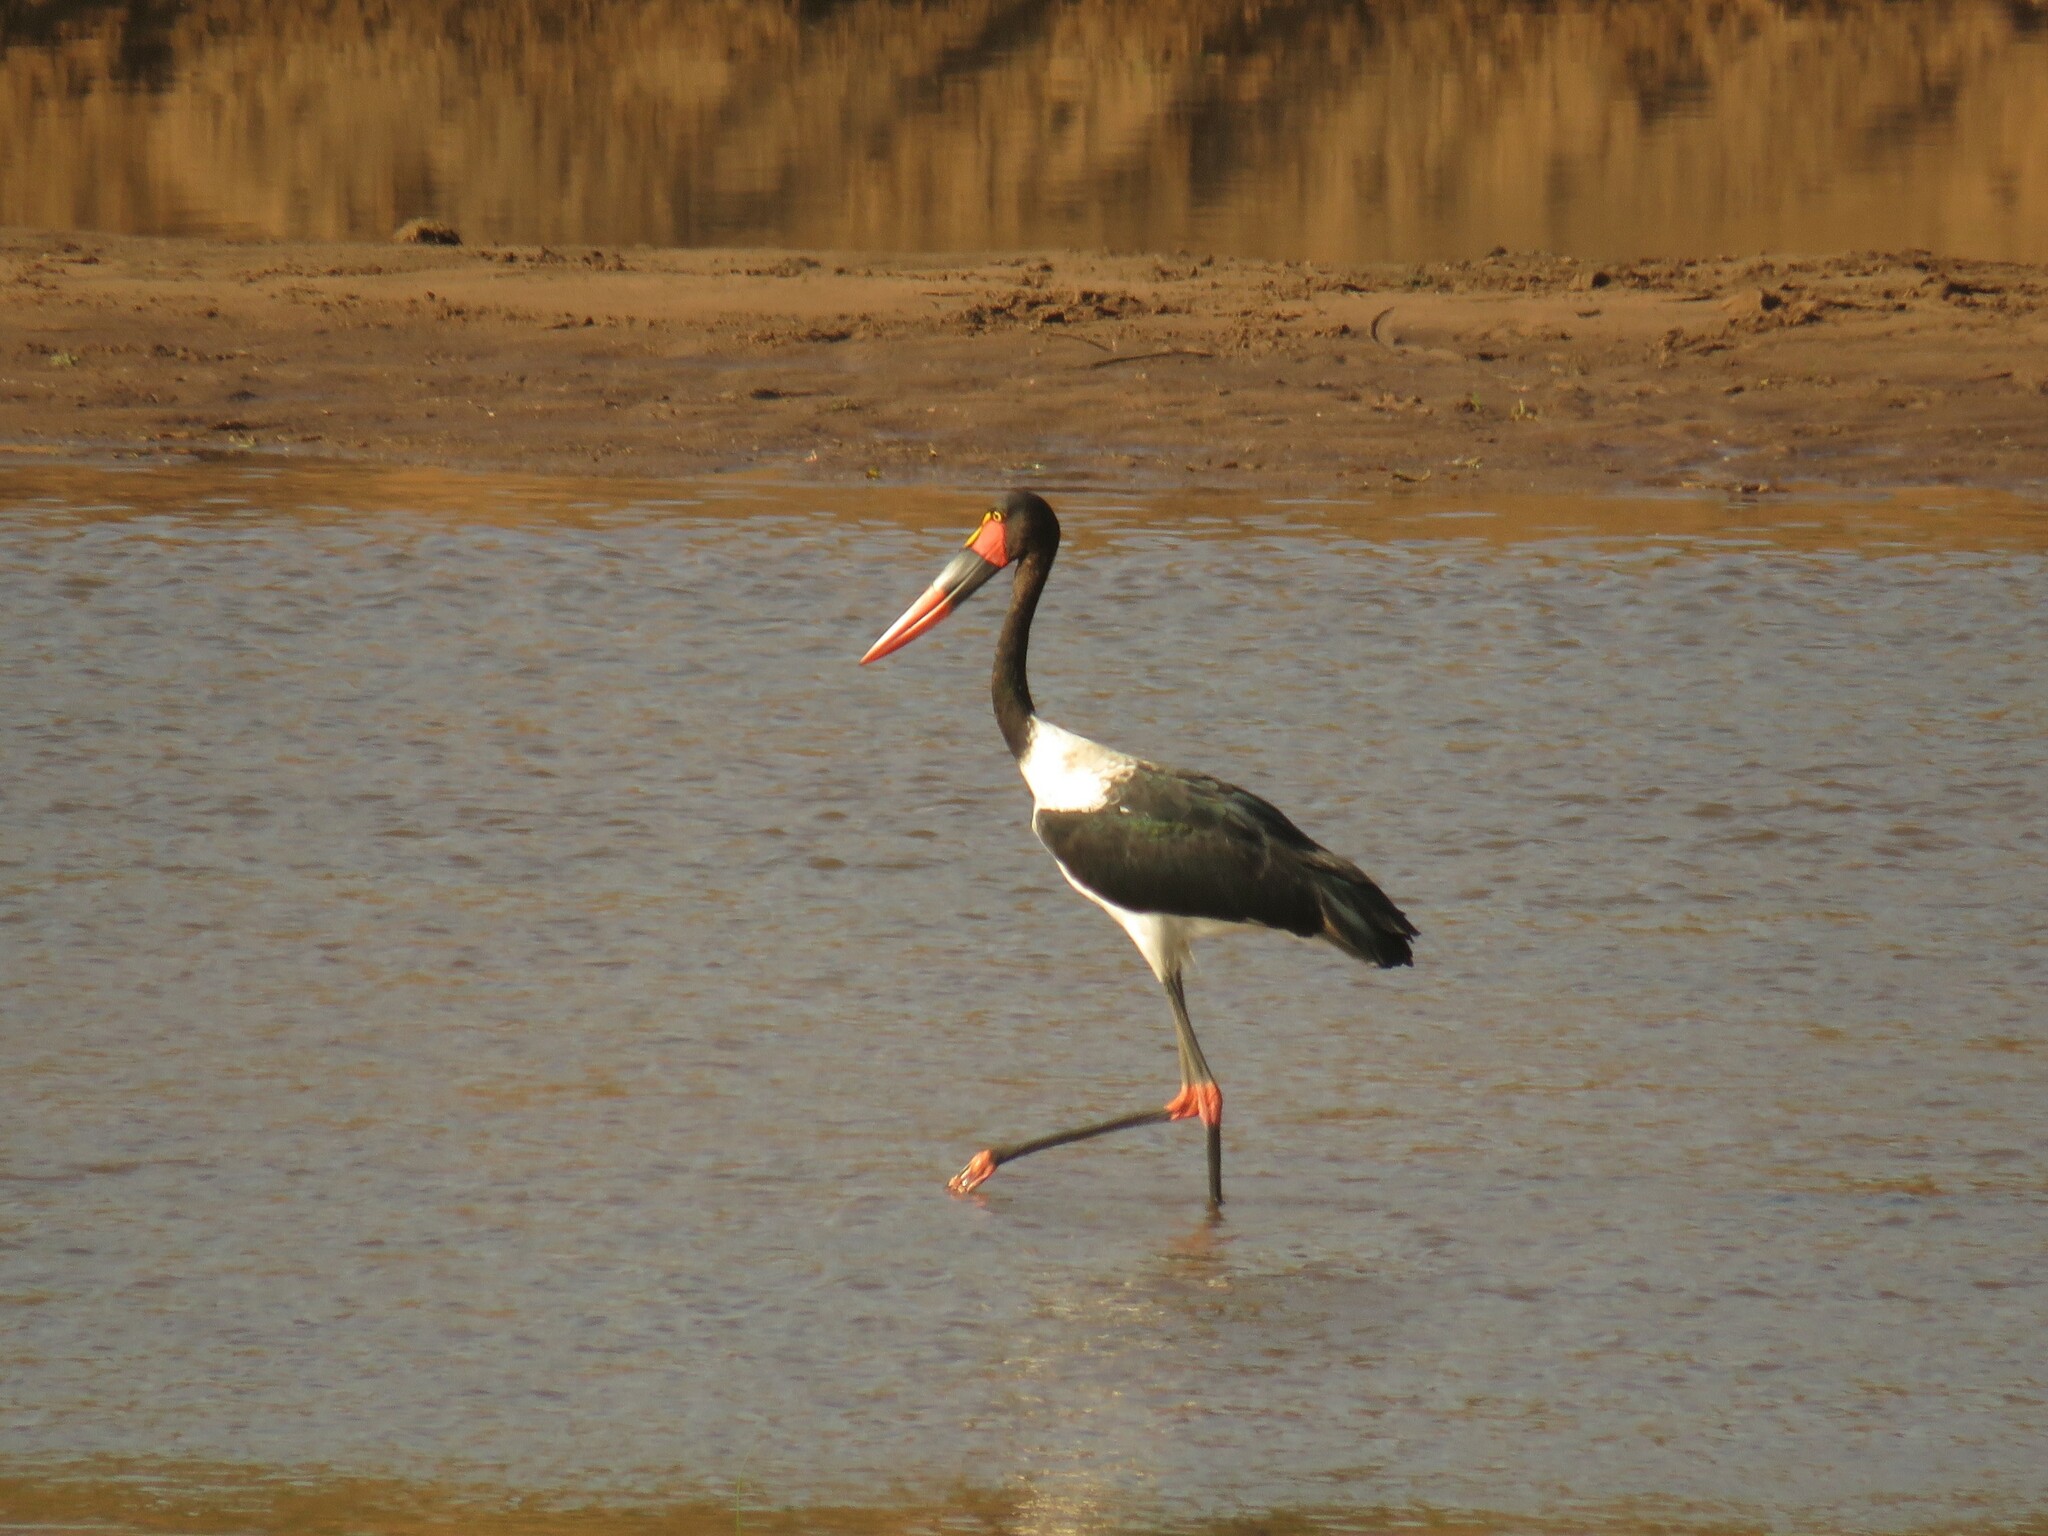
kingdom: Animalia
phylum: Chordata
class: Aves
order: Ciconiiformes
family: Ciconiidae
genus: Ephippiorhynchus
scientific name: Ephippiorhynchus senegalensis
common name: Saddle-billed stork
